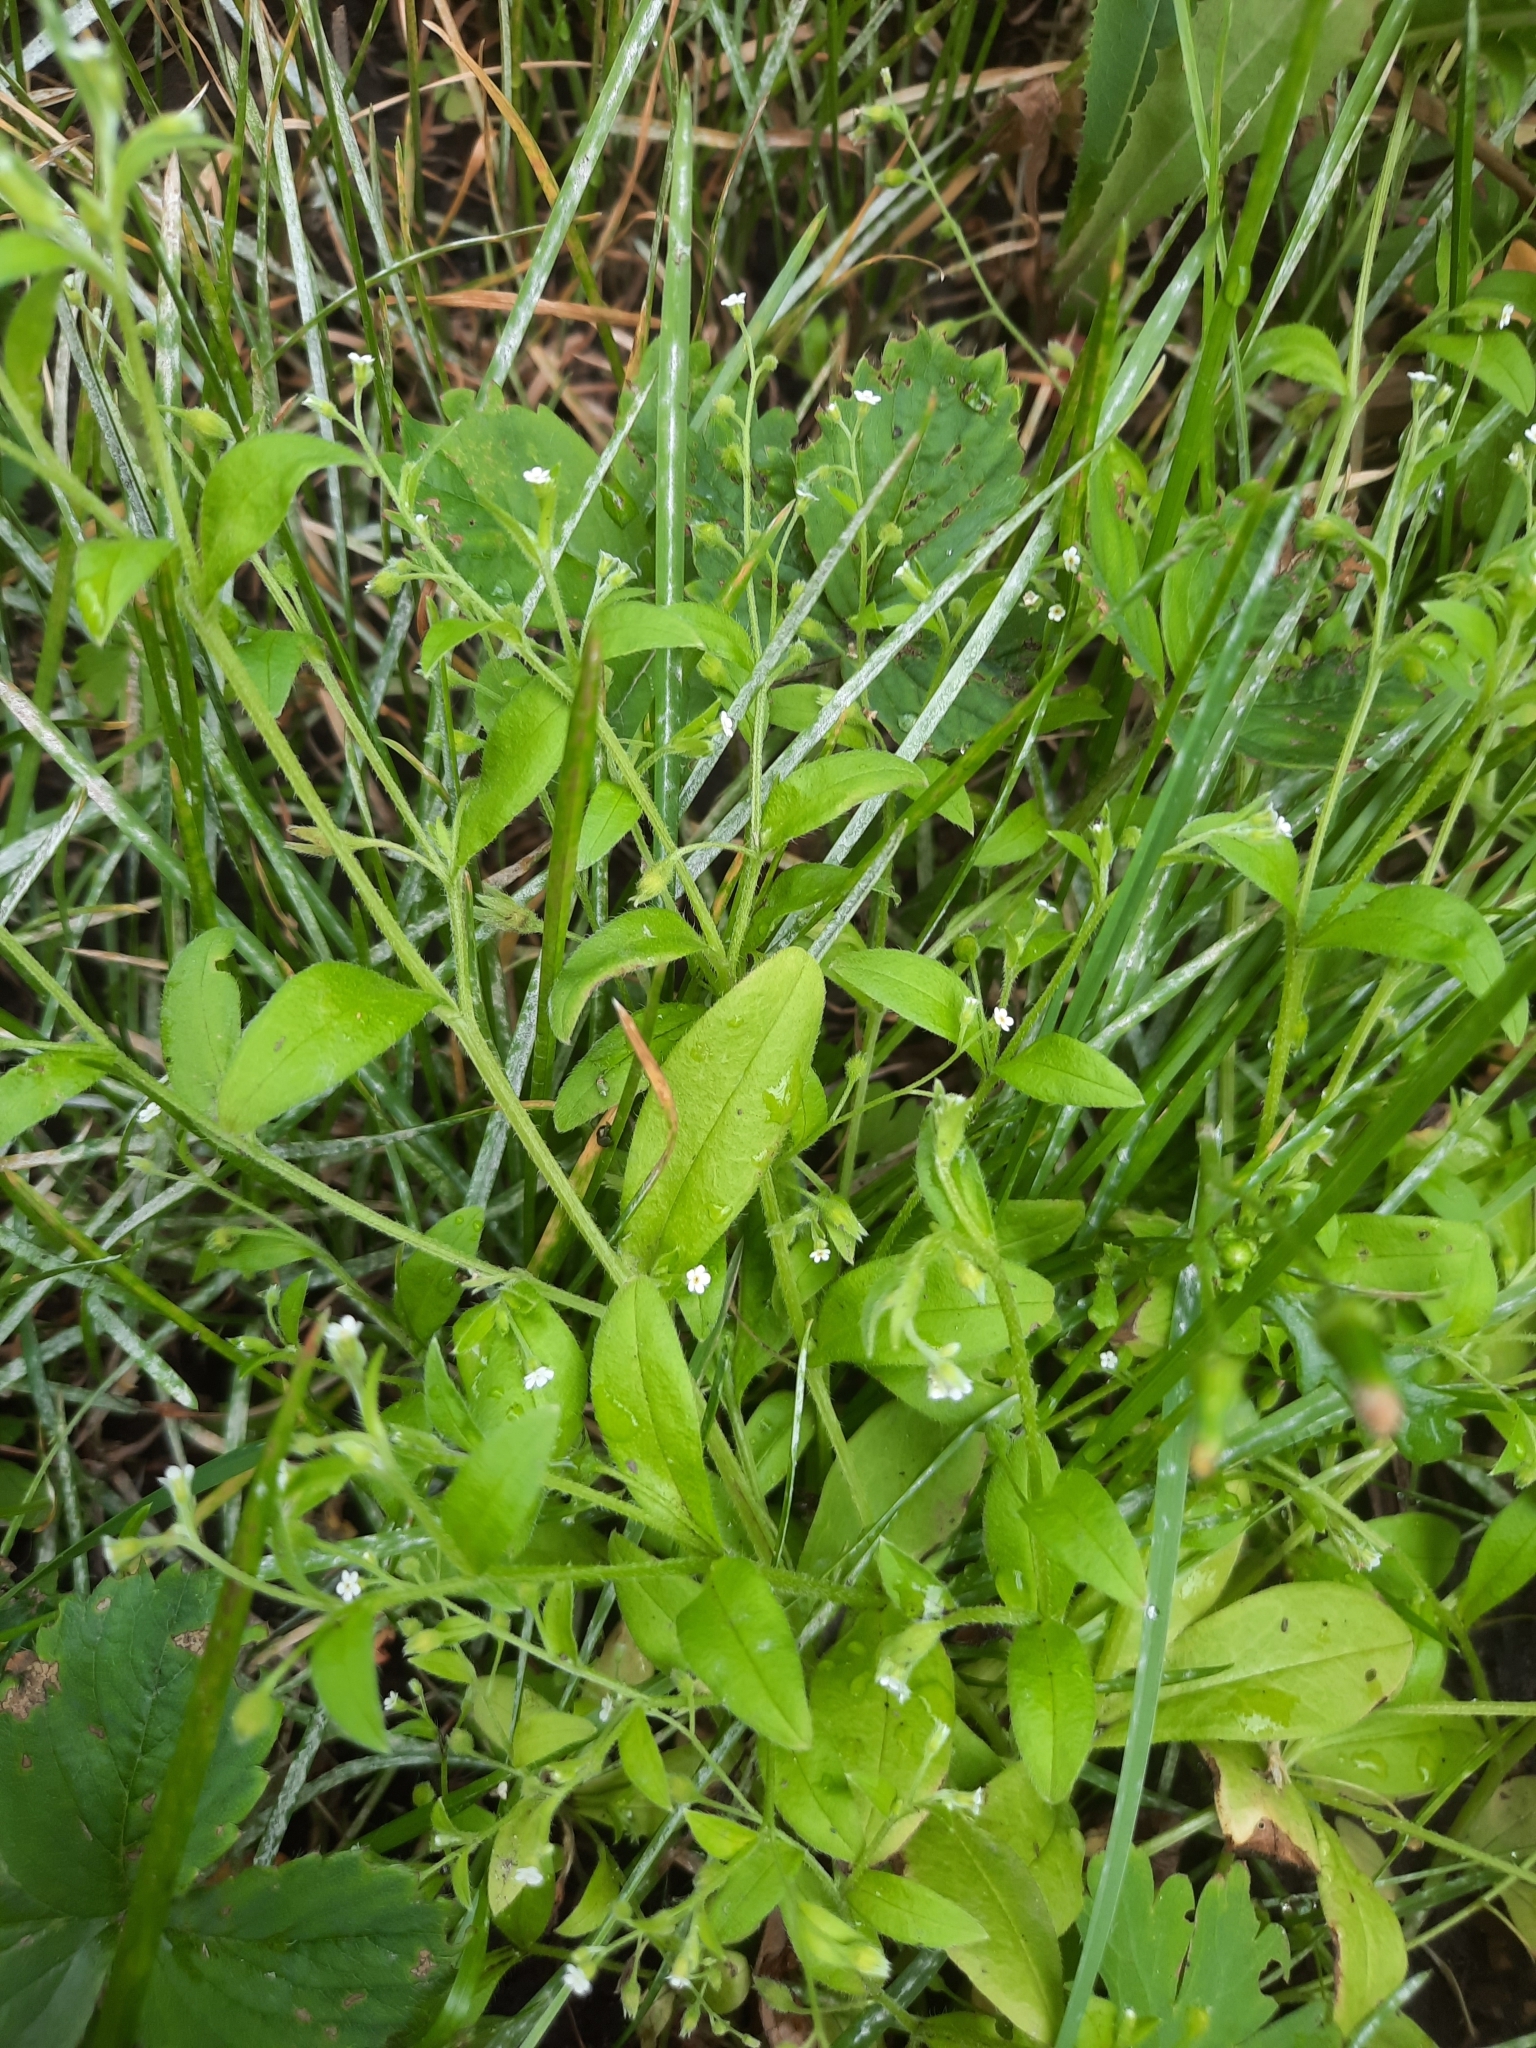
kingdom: Plantae
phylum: Tracheophyta
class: Magnoliopsida
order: Boraginales
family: Boraginaceae
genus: Myosotis
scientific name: Myosotis sparsiflora
